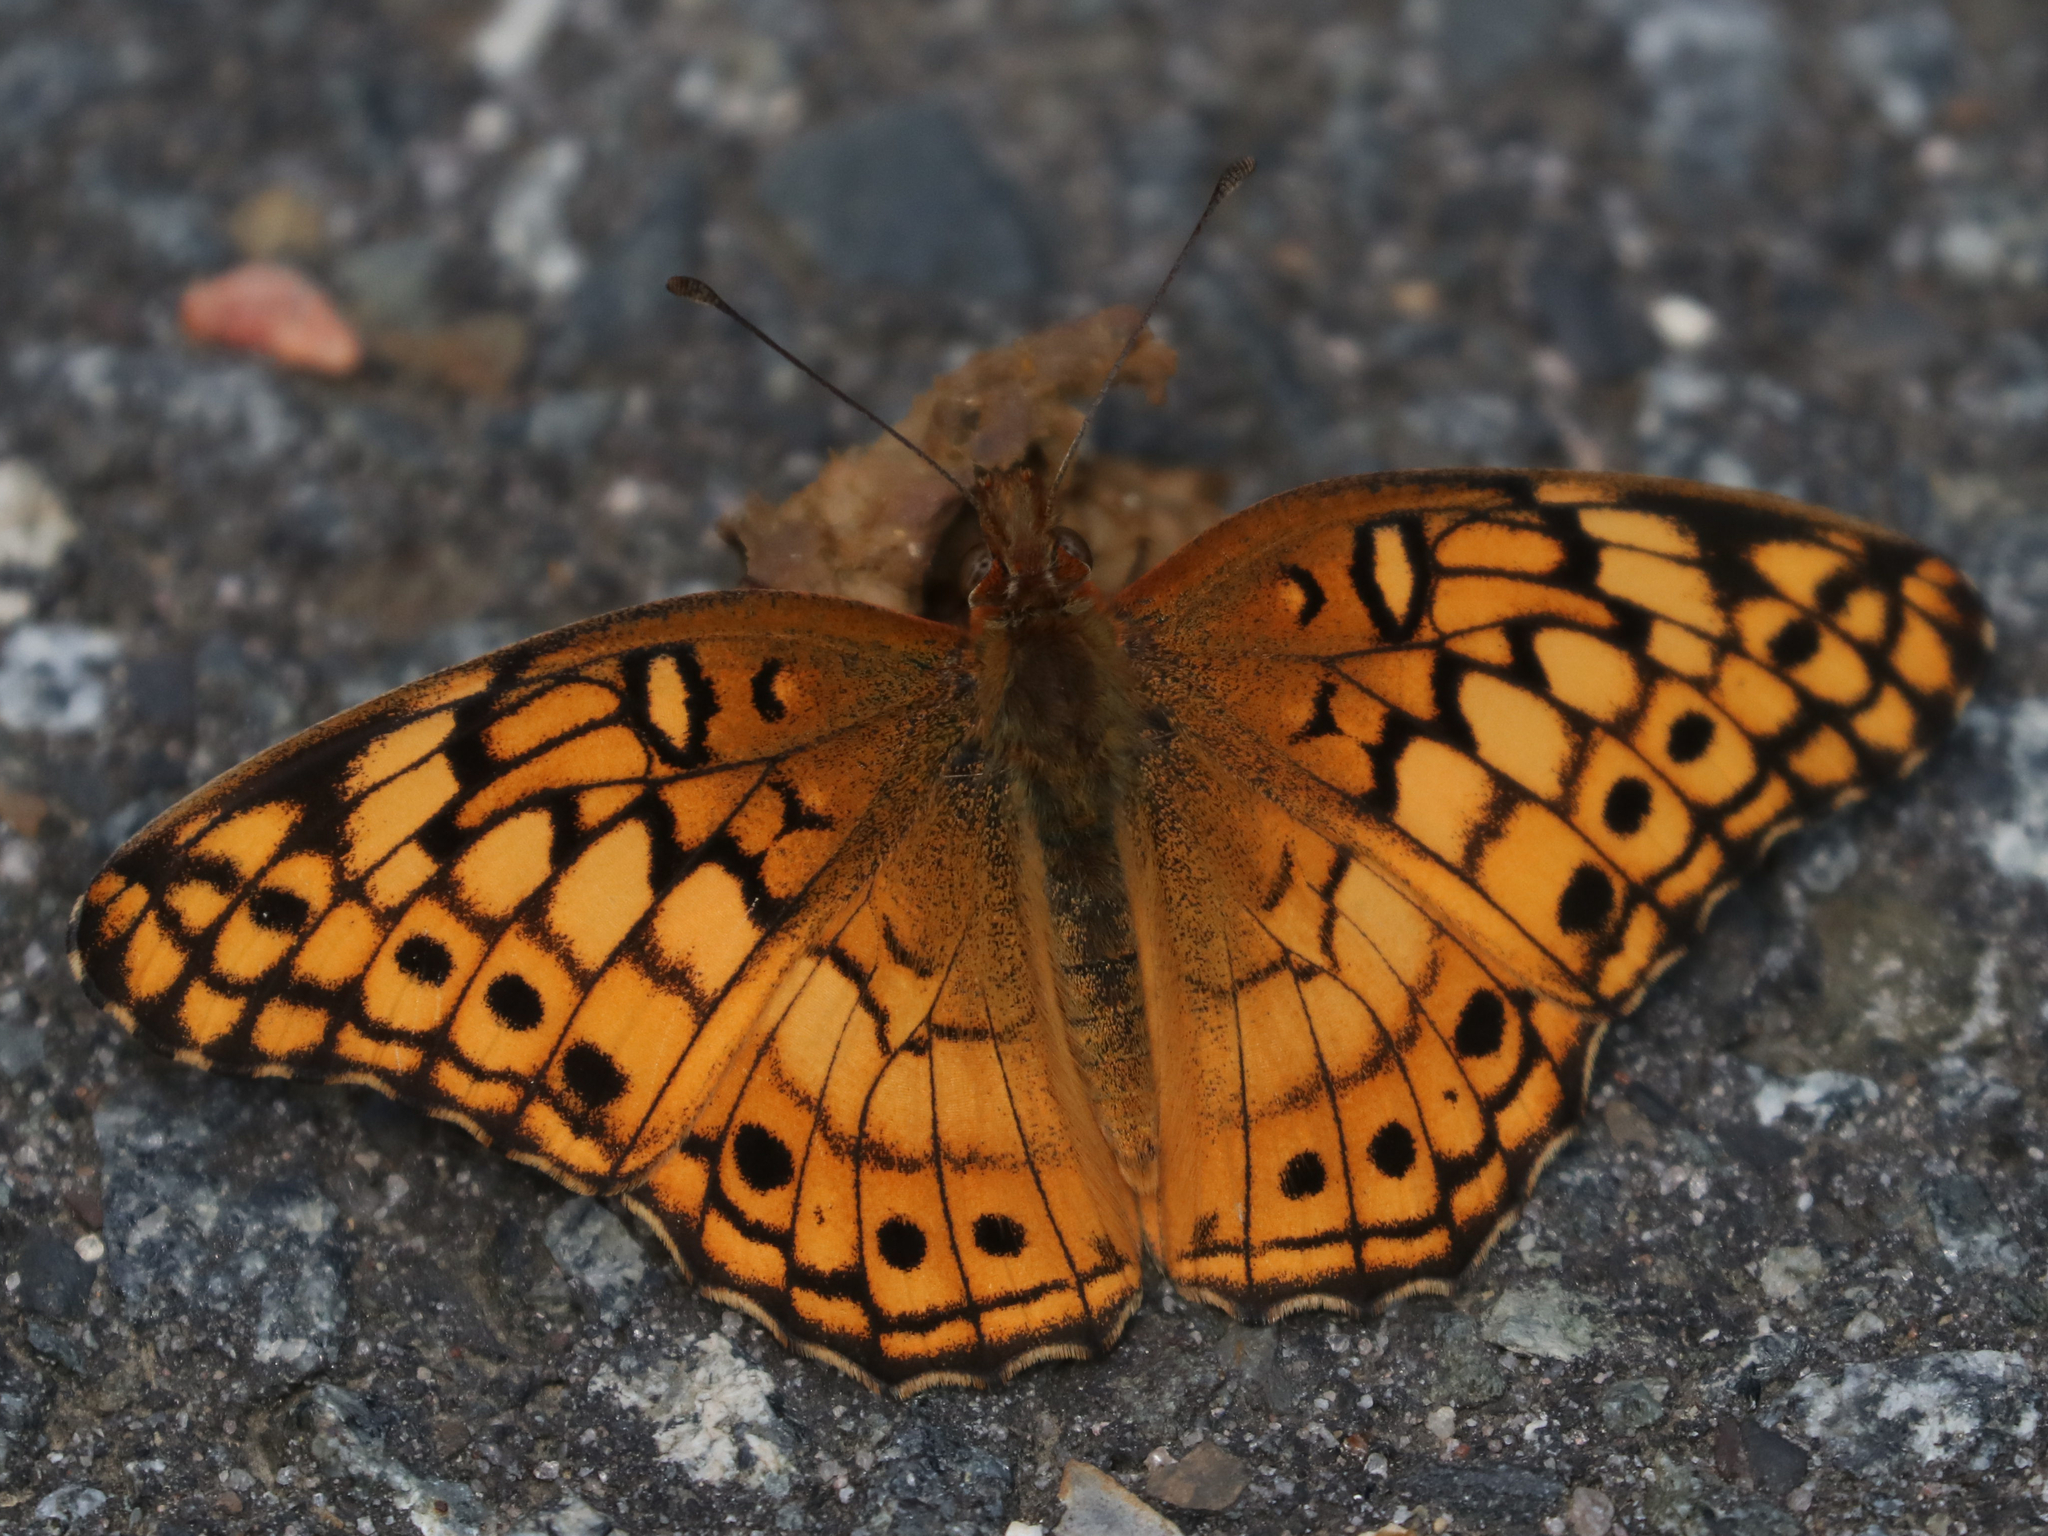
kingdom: Animalia
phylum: Arthropoda
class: Insecta
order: Lepidoptera
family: Nymphalidae
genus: Euptoieta
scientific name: Euptoieta claudia
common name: Variegated fritillary
